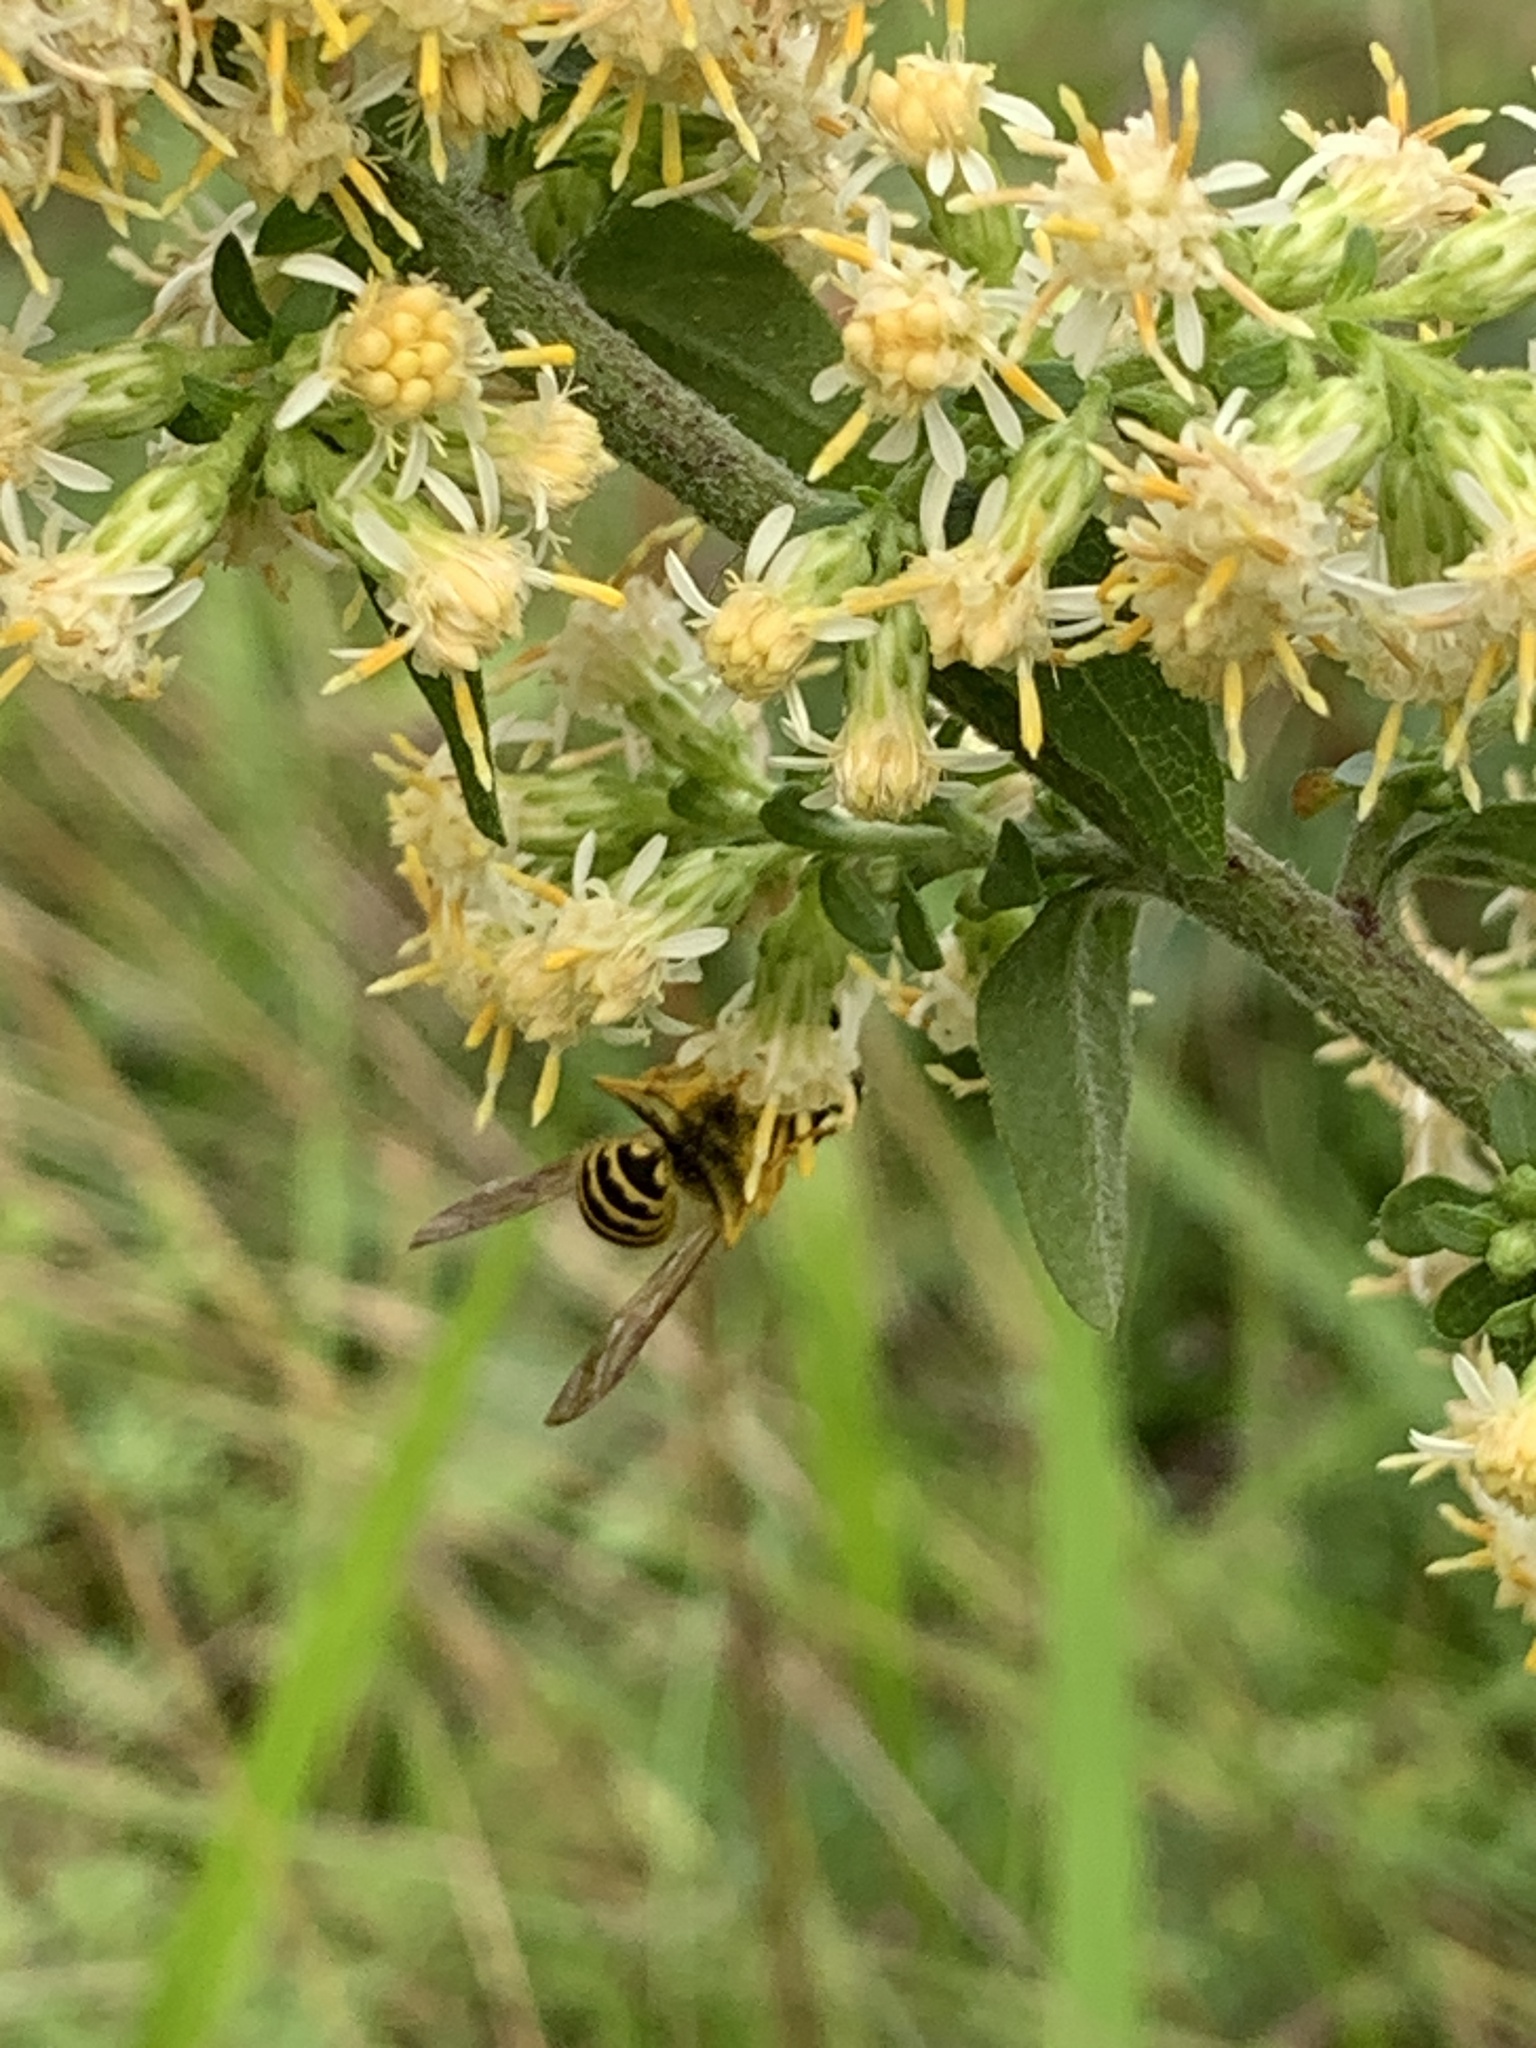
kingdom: Animalia
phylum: Arthropoda
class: Insecta
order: Hymenoptera
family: Vespidae
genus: Vespula
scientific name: Vespula maculifrons
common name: Eastern yellowjacket
